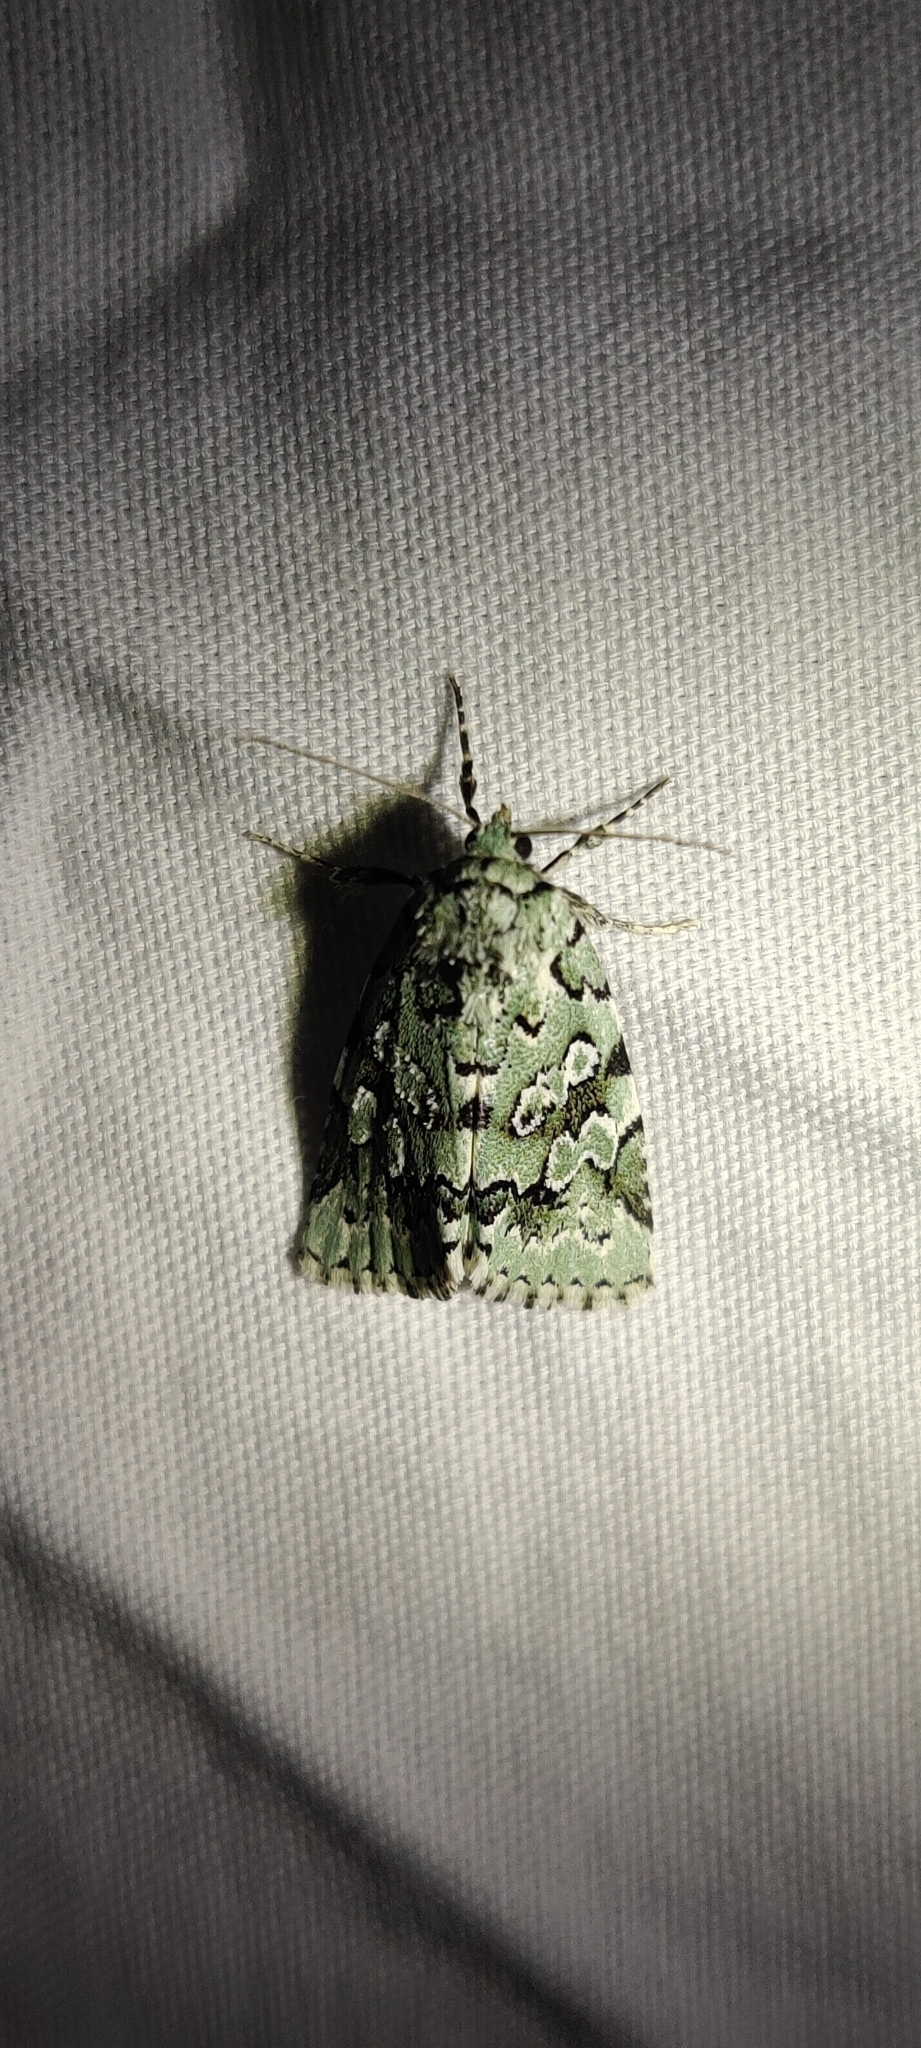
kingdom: Animalia
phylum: Arthropoda
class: Insecta
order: Lepidoptera
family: Noctuidae
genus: Bryolymnia
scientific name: Bryolymnia viridata
